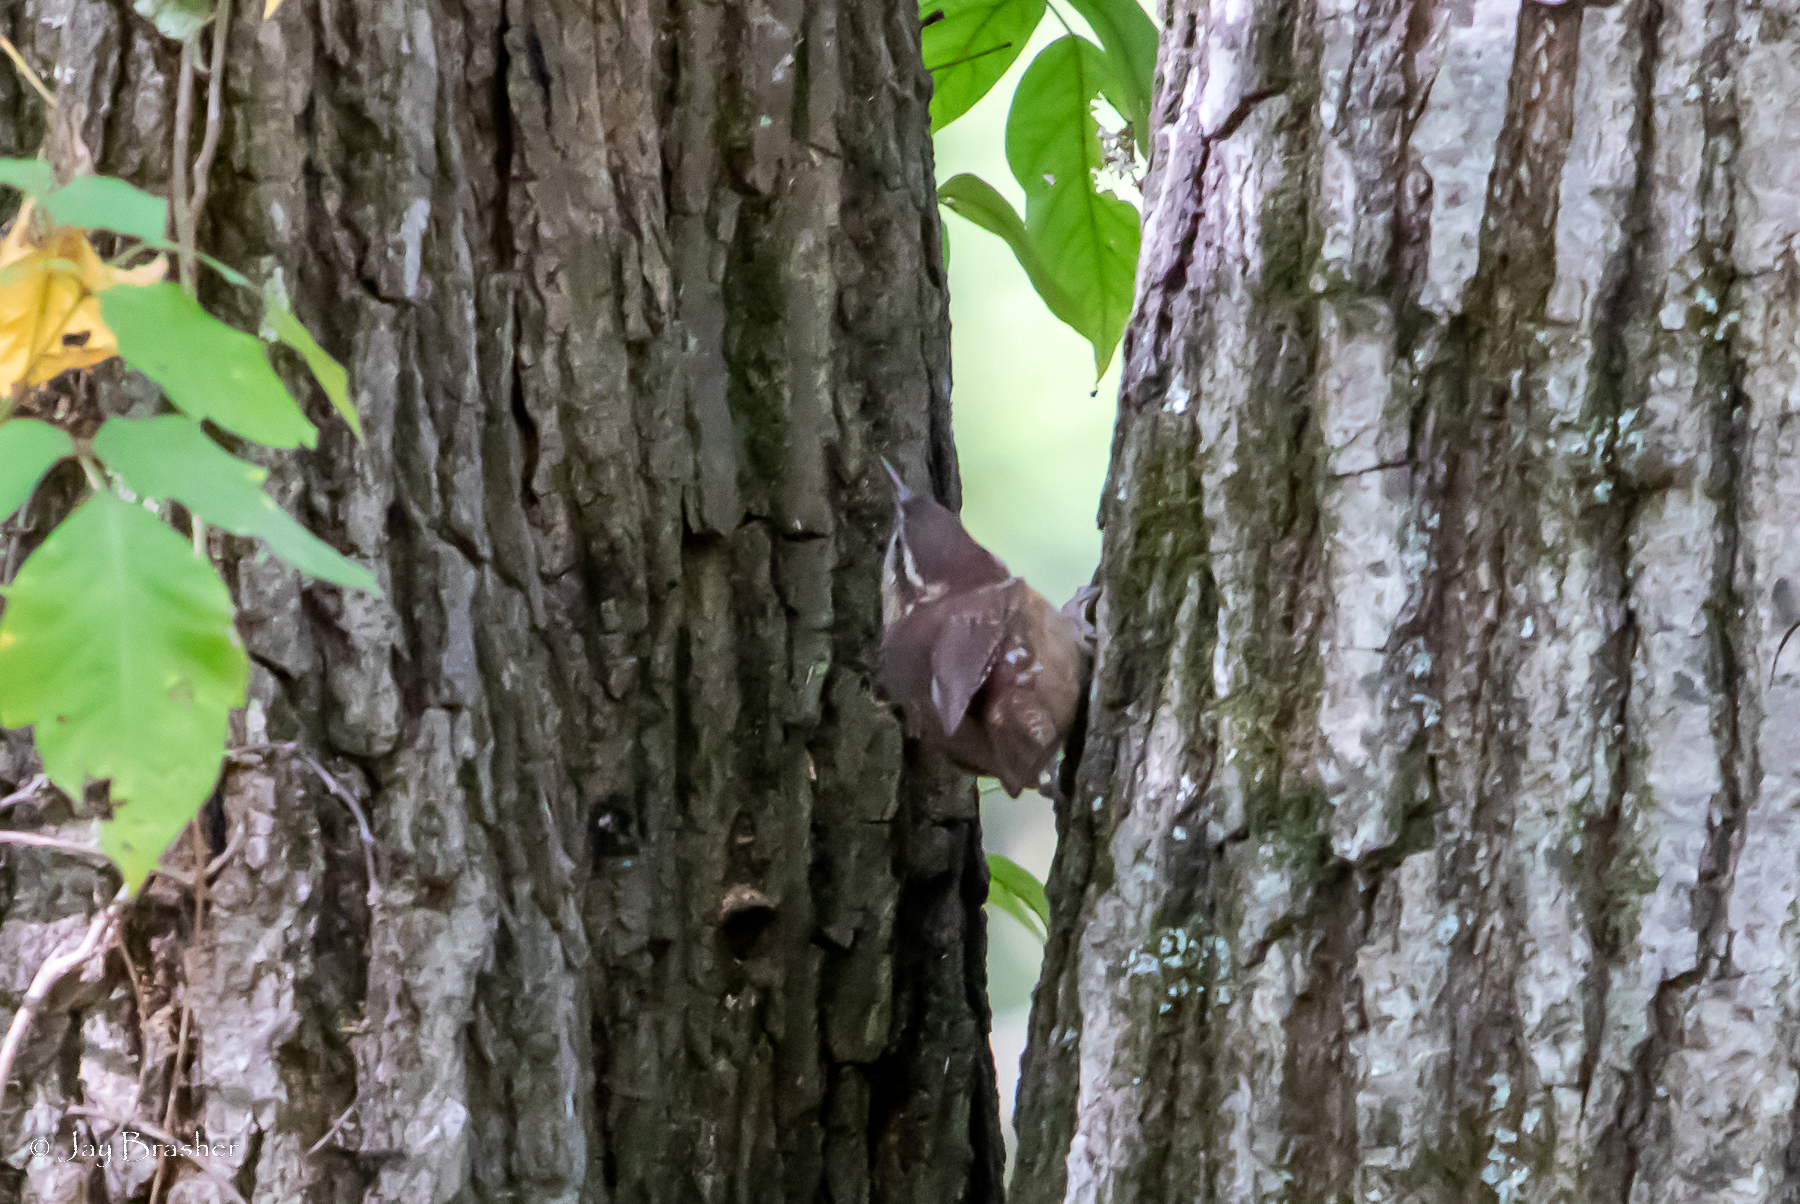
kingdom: Animalia
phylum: Chordata
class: Aves
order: Passeriformes
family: Troglodytidae
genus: Thryothorus
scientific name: Thryothorus ludovicianus
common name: Carolina wren
